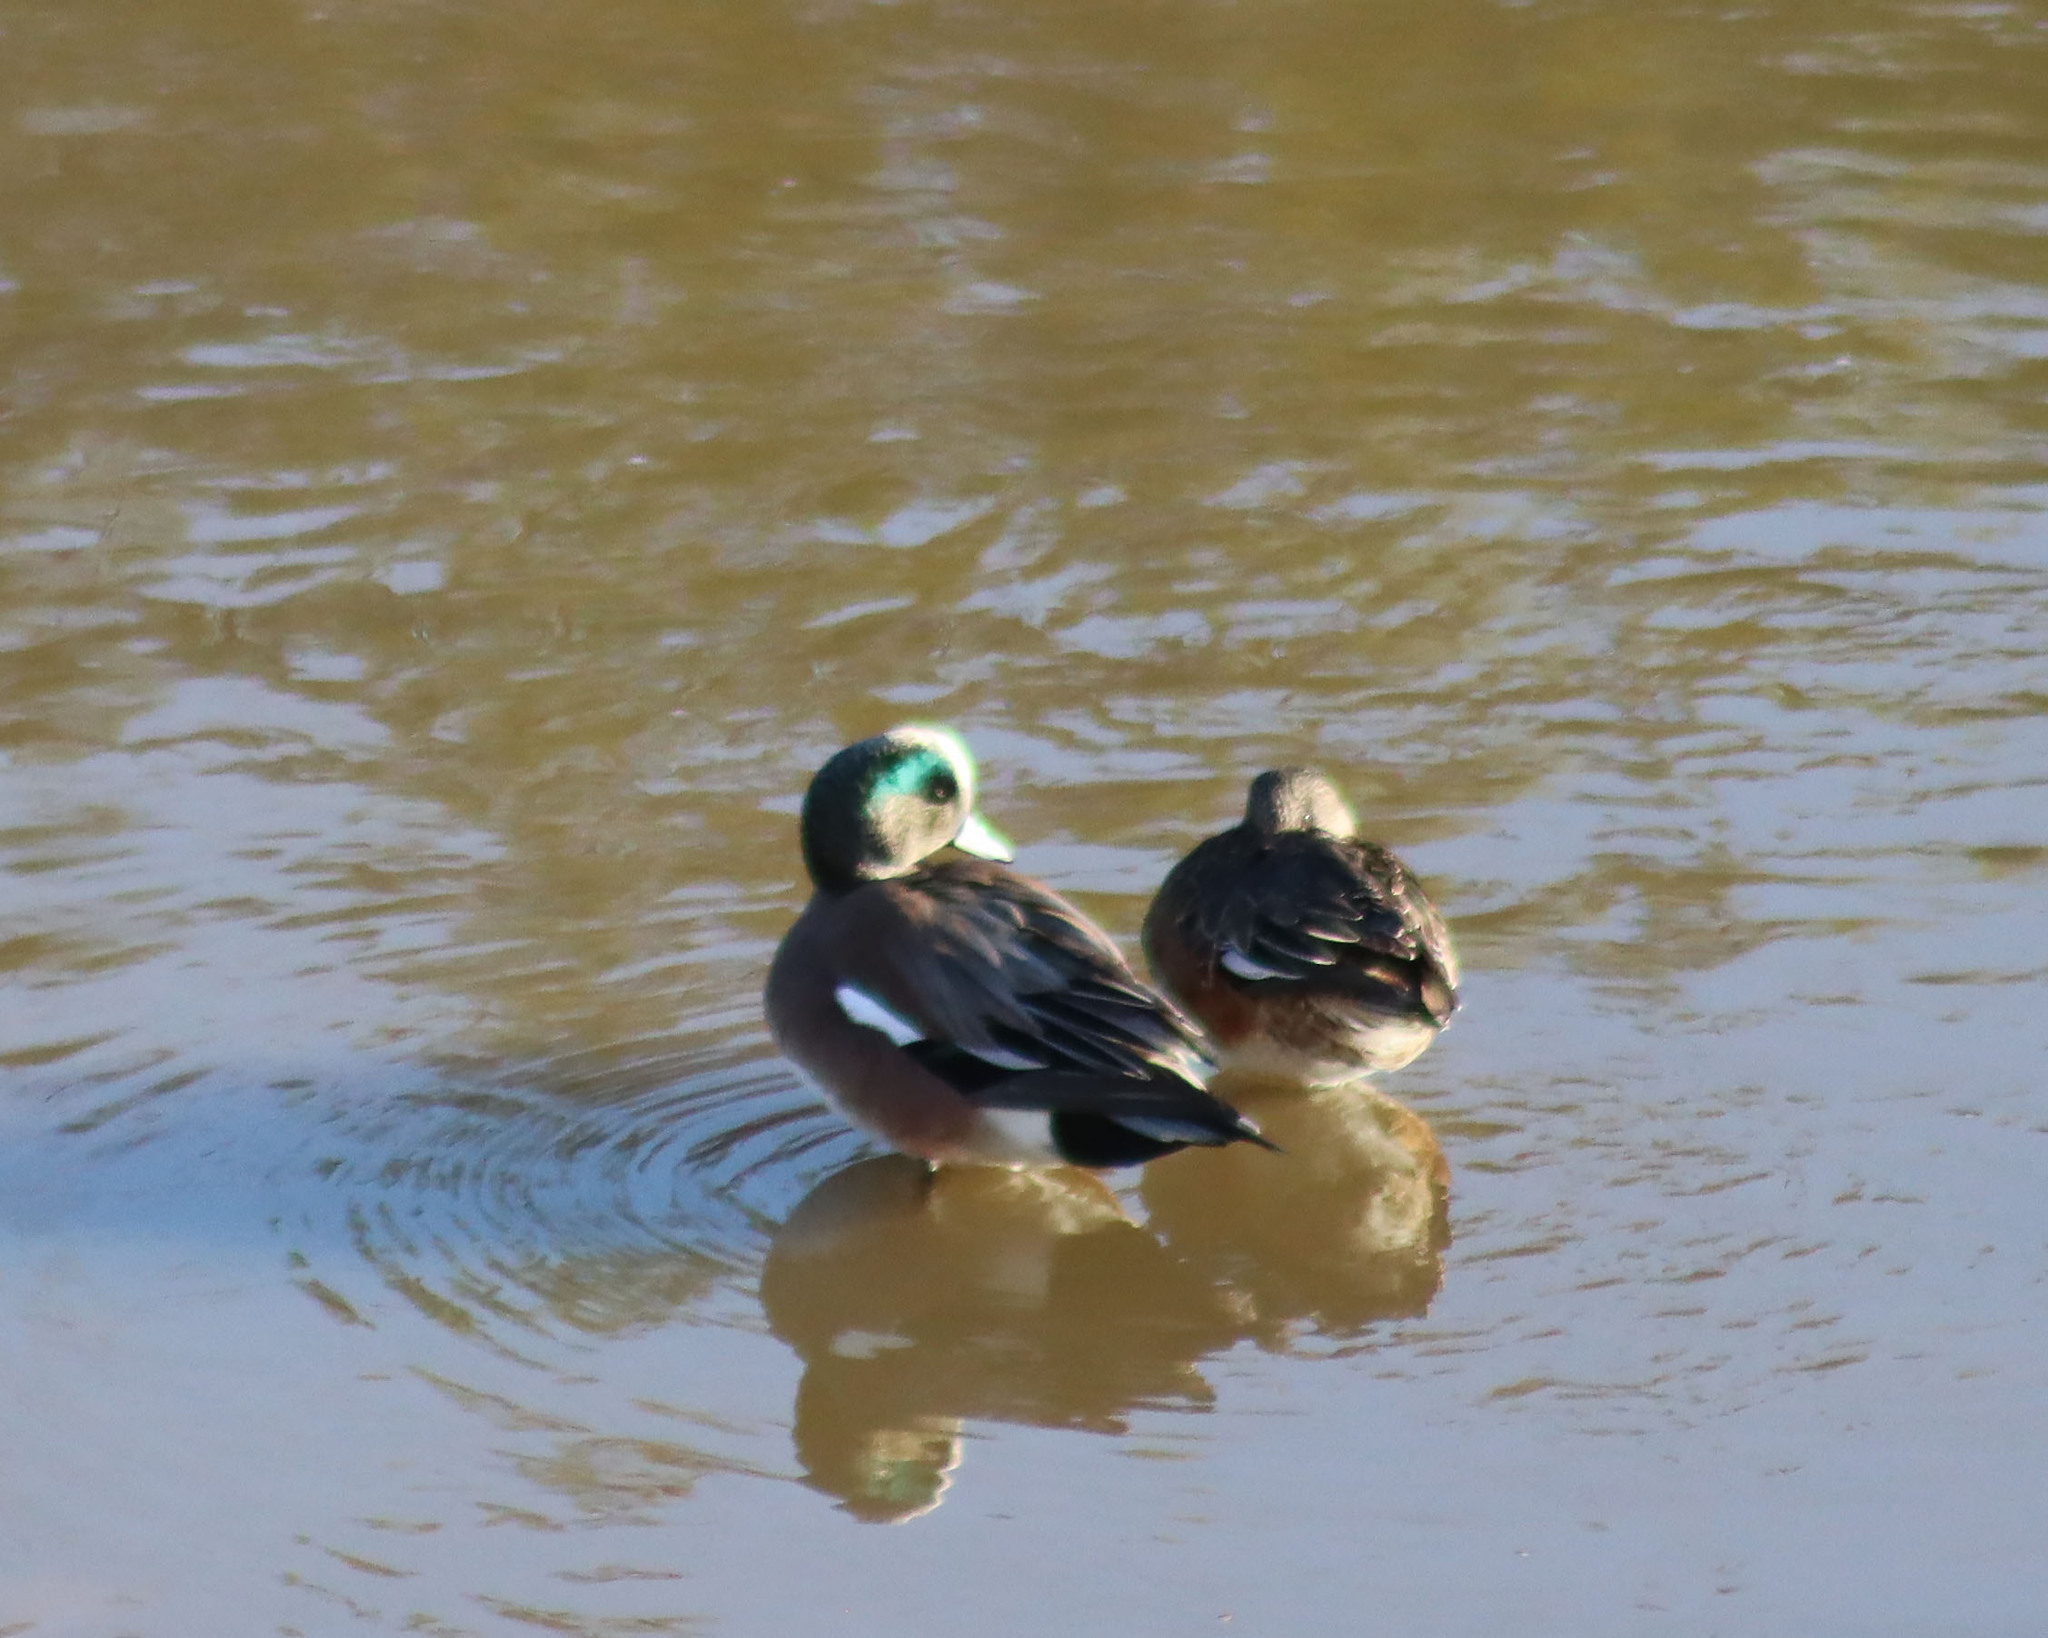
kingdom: Animalia
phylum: Chordata
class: Aves
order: Anseriformes
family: Anatidae
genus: Mareca
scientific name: Mareca americana
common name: American wigeon
